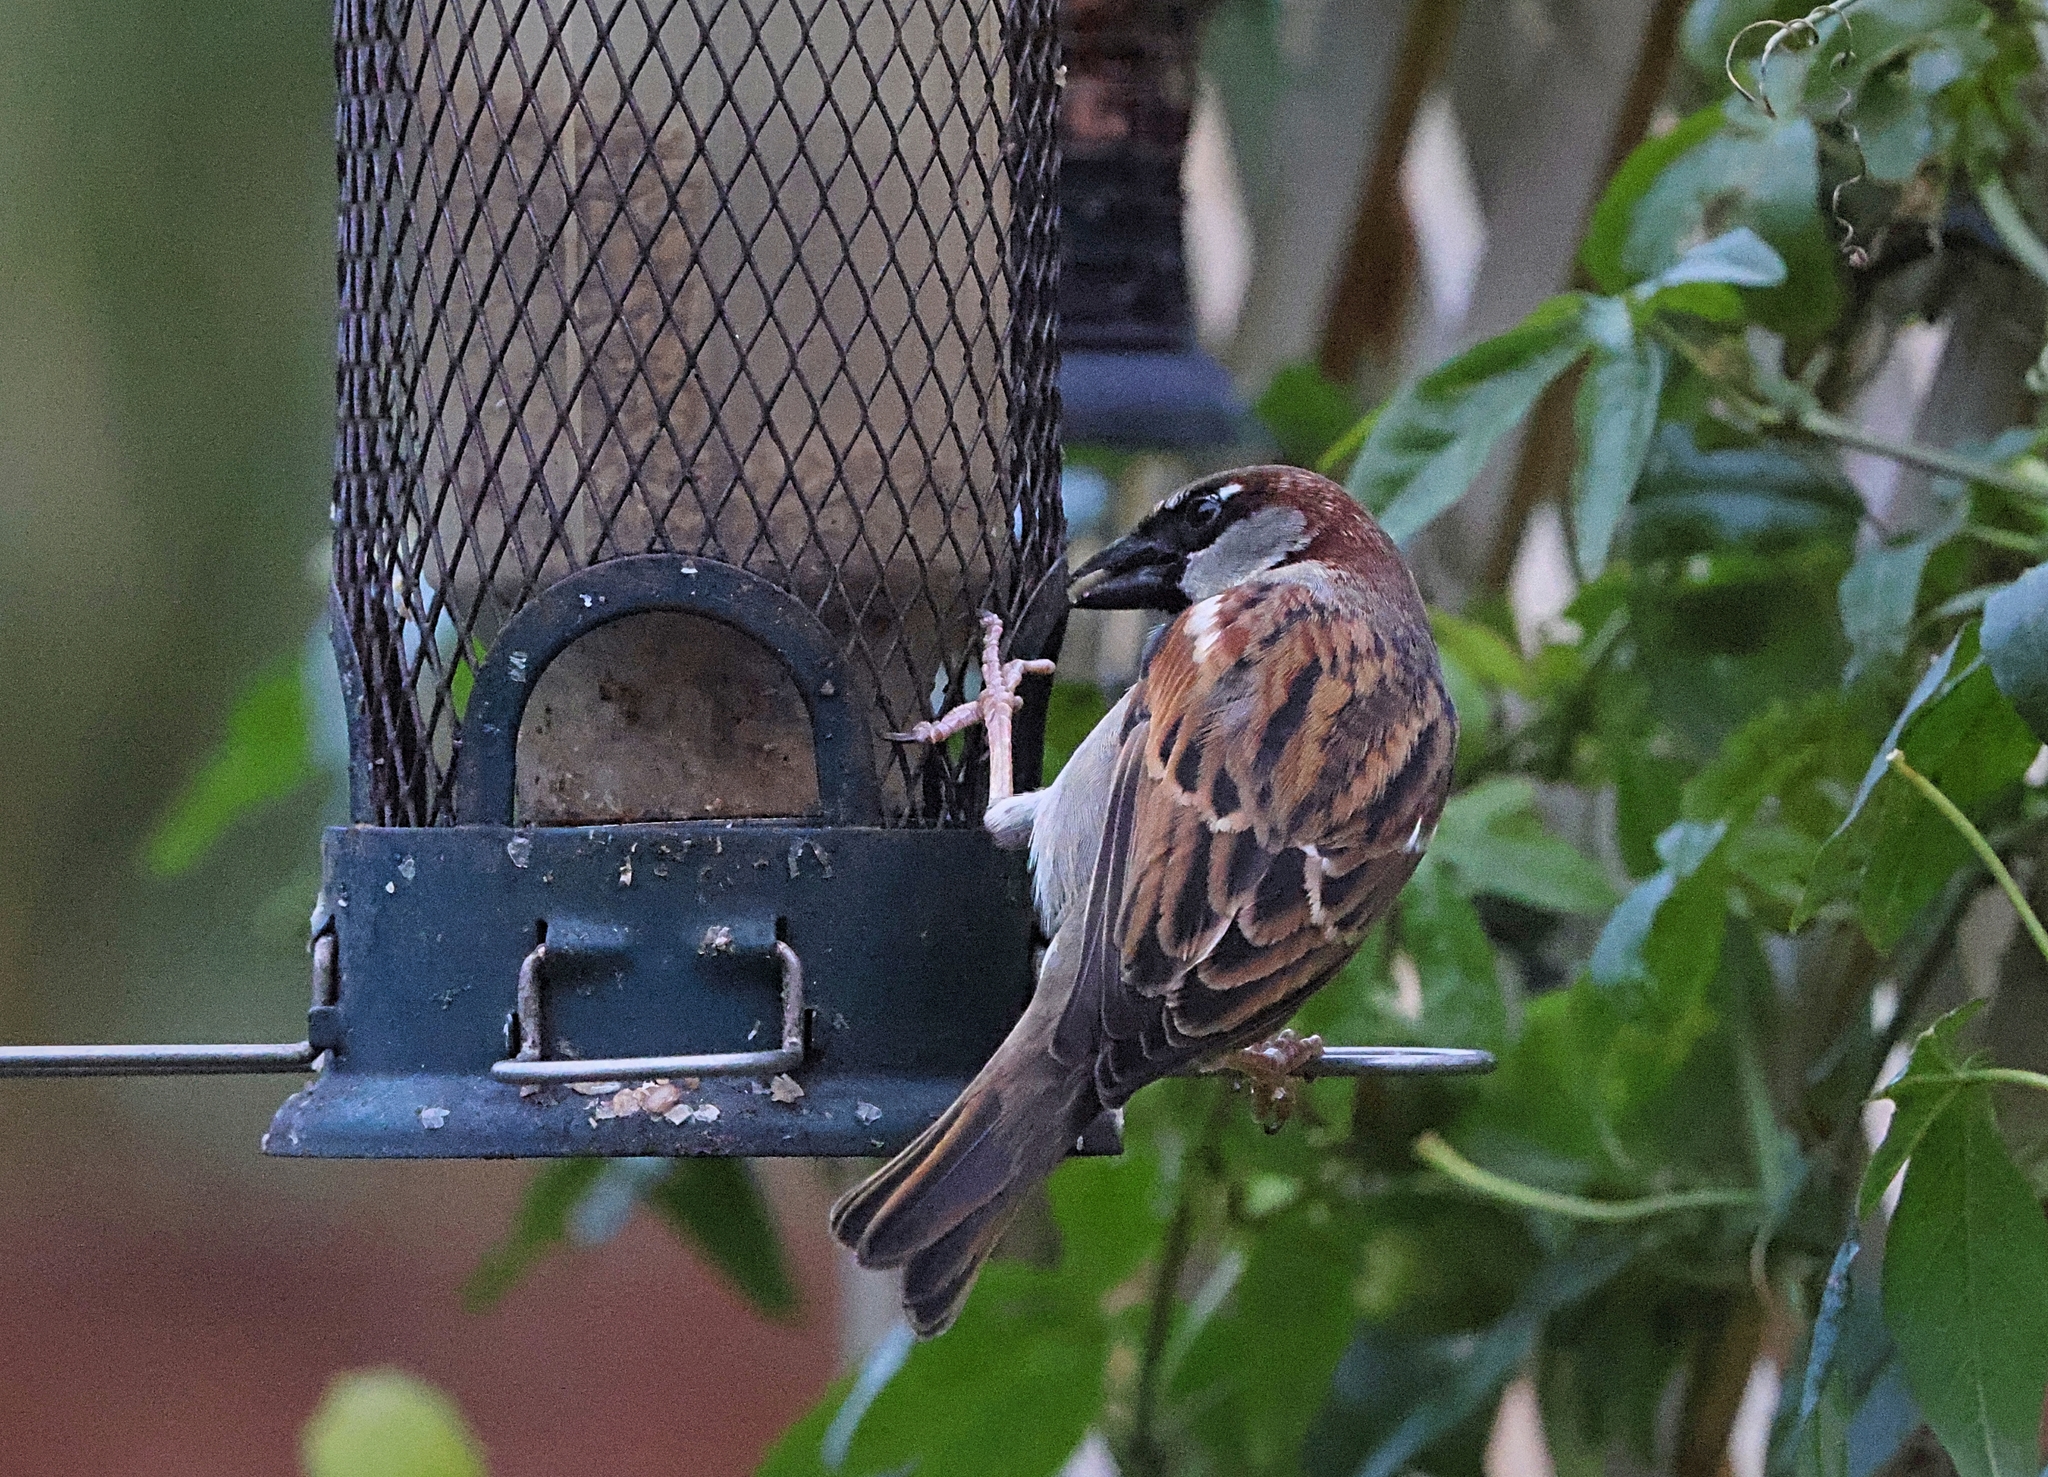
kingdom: Animalia
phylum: Chordata
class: Aves
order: Passeriformes
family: Passeridae
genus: Passer
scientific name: Passer domesticus
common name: House sparrow
